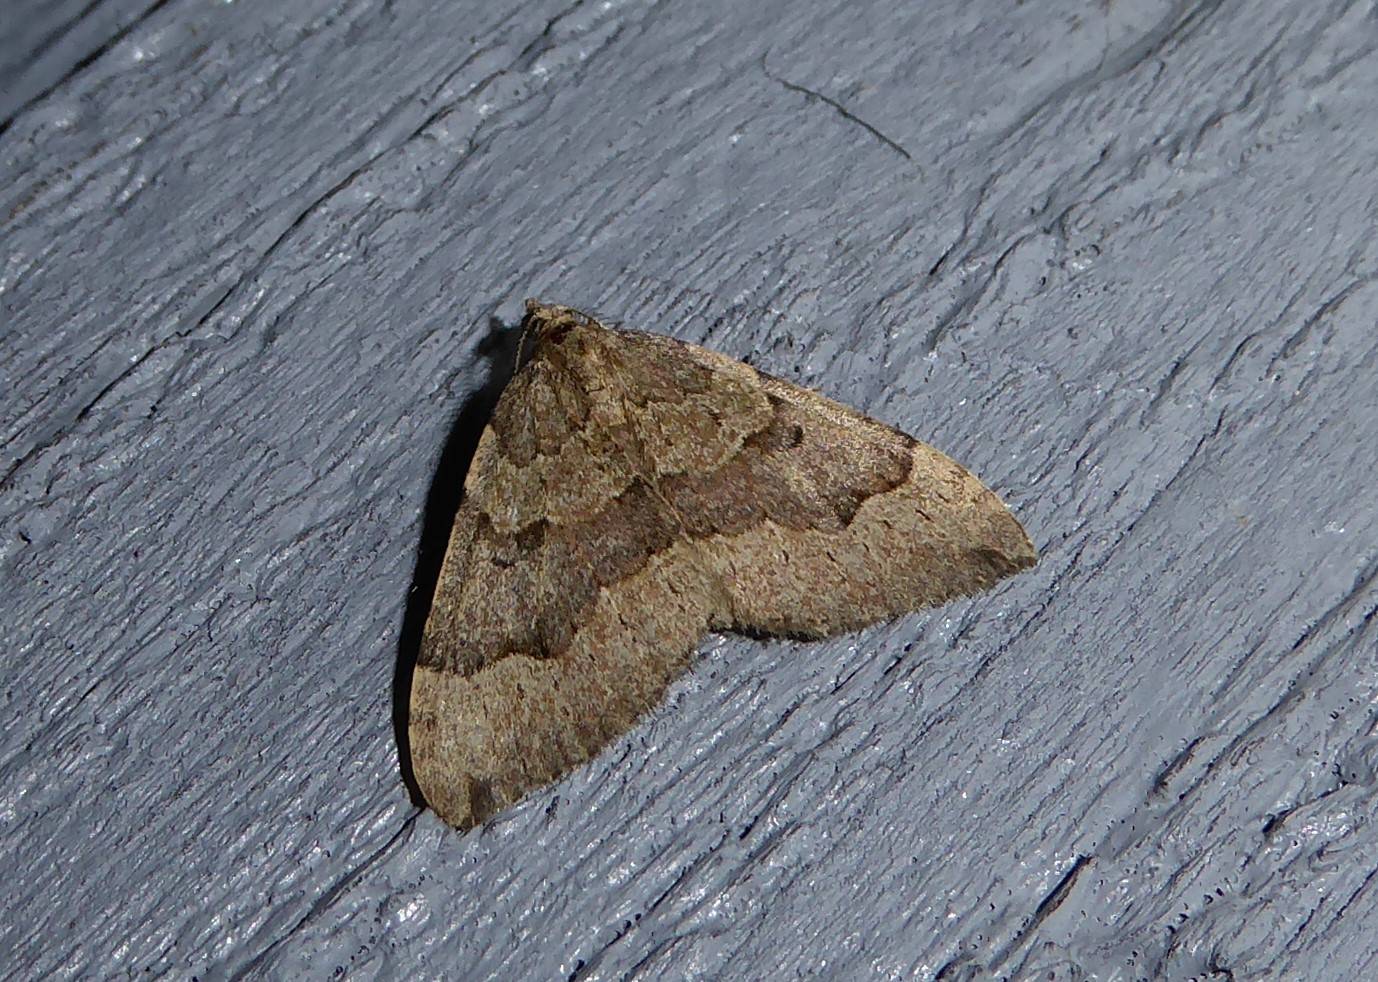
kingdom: Animalia
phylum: Arthropoda
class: Insecta
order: Lepidoptera
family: Geometridae
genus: Epyaxa
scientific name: Epyaxa rosearia
